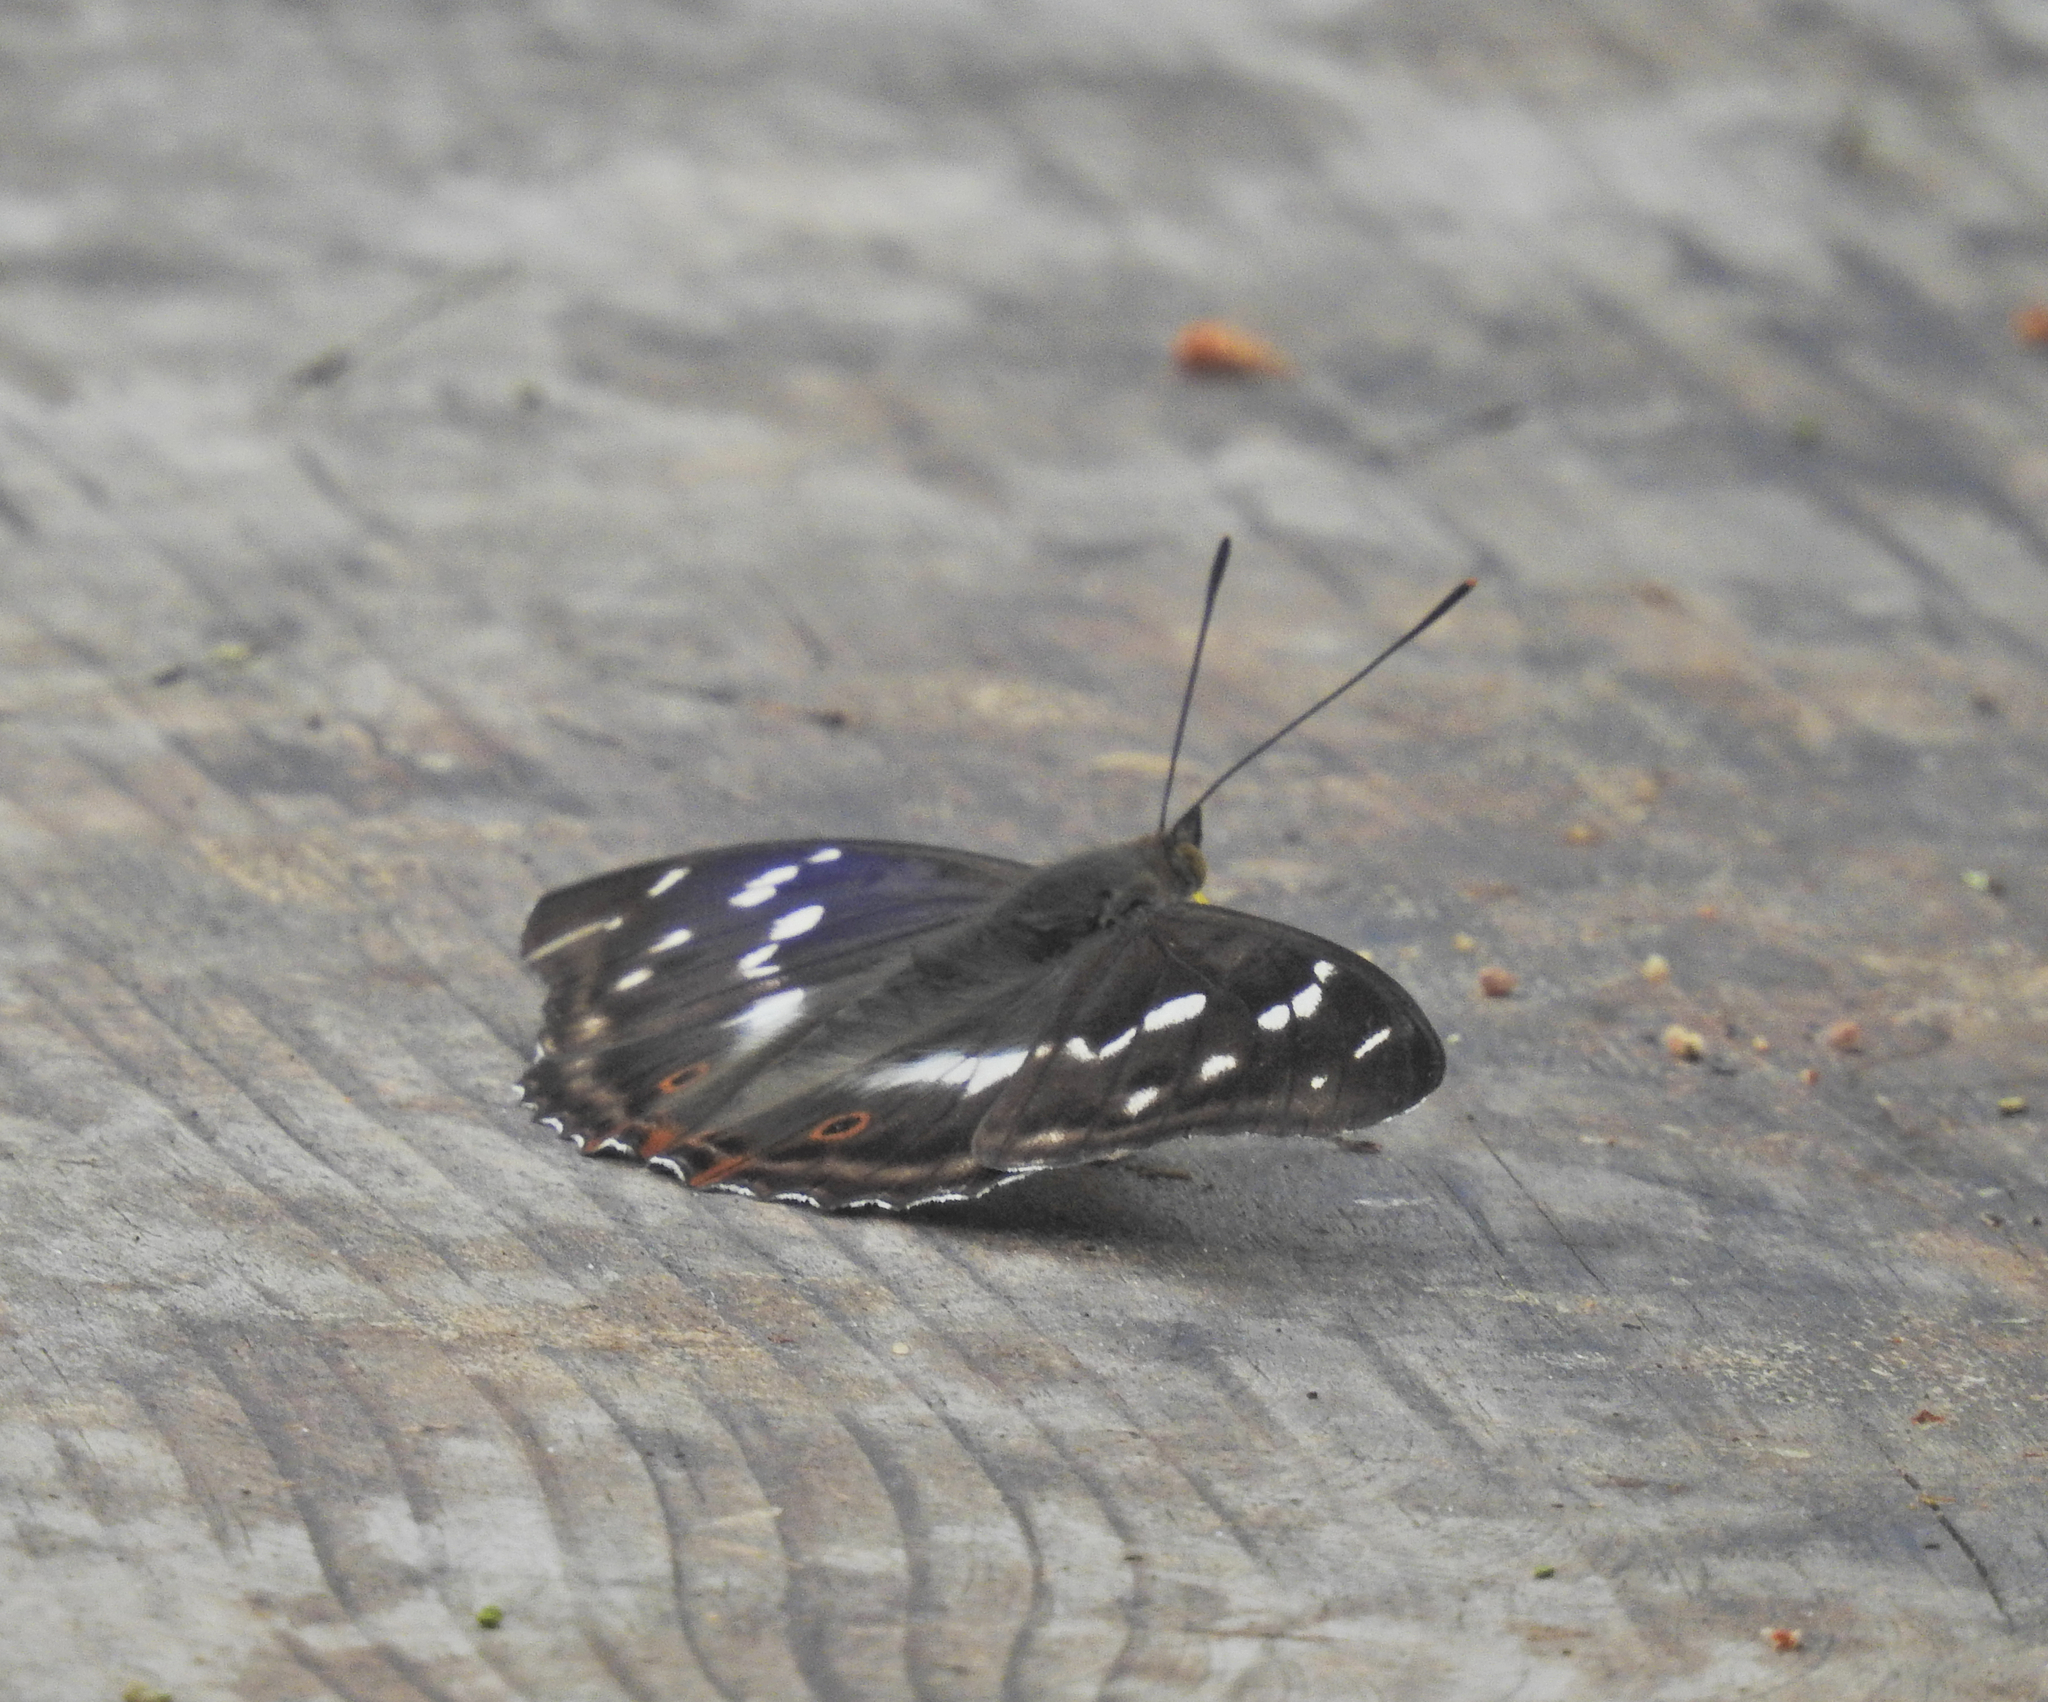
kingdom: Animalia
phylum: Arthropoda
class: Insecta
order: Lepidoptera
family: Nymphalidae
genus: Apatura
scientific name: Apatura iris
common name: Purple emperor
